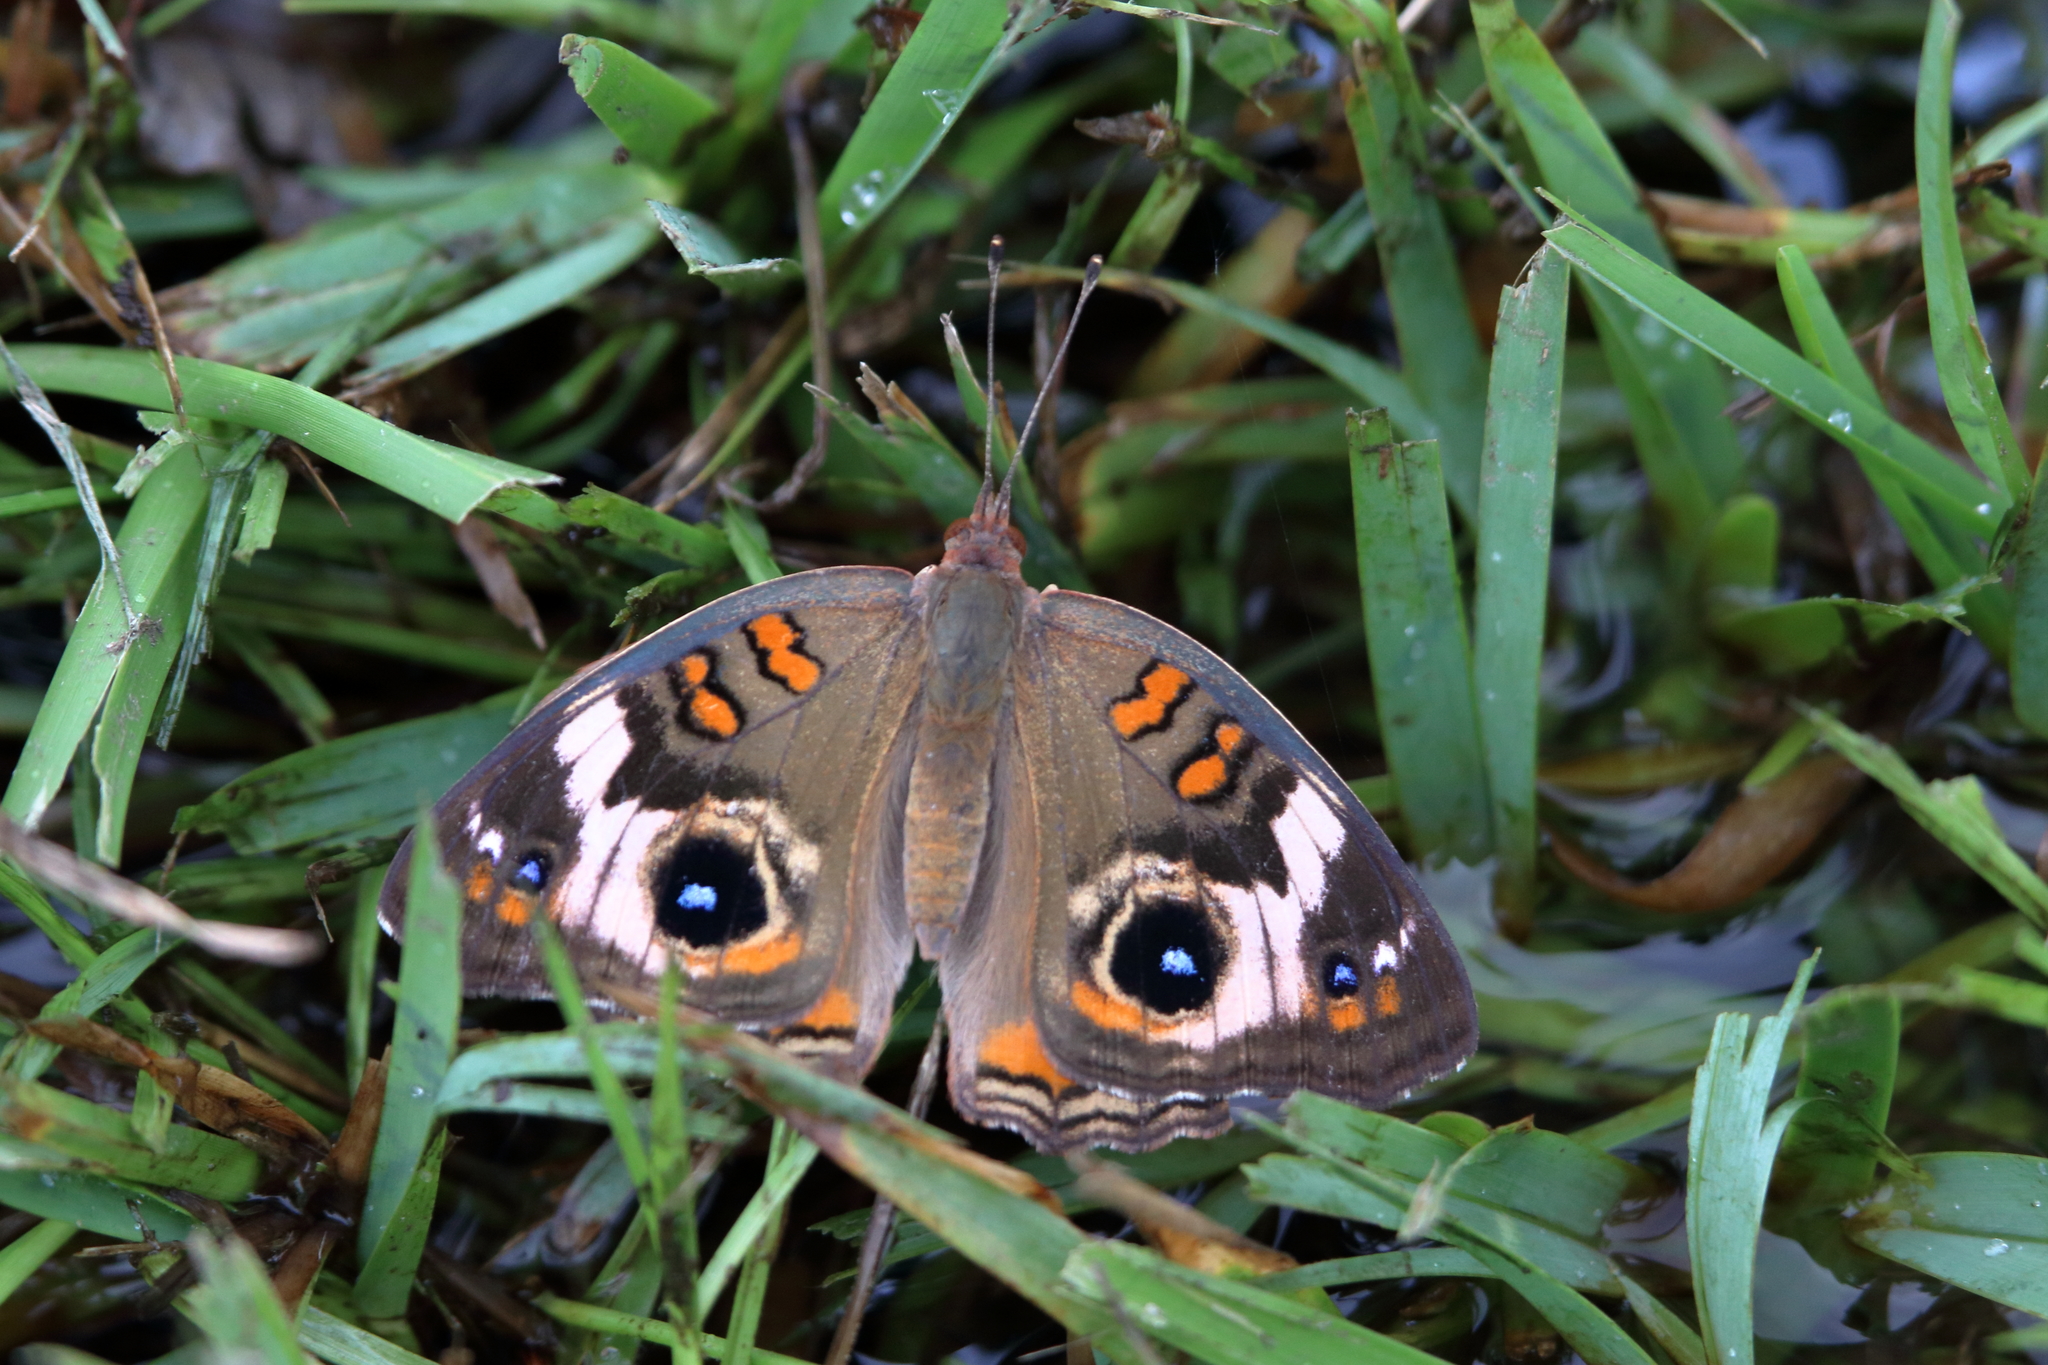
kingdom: Animalia
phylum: Arthropoda
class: Insecta
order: Lepidoptera
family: Nymphalidae
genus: Junonia
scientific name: Junonia coenia
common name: Common buckeye
